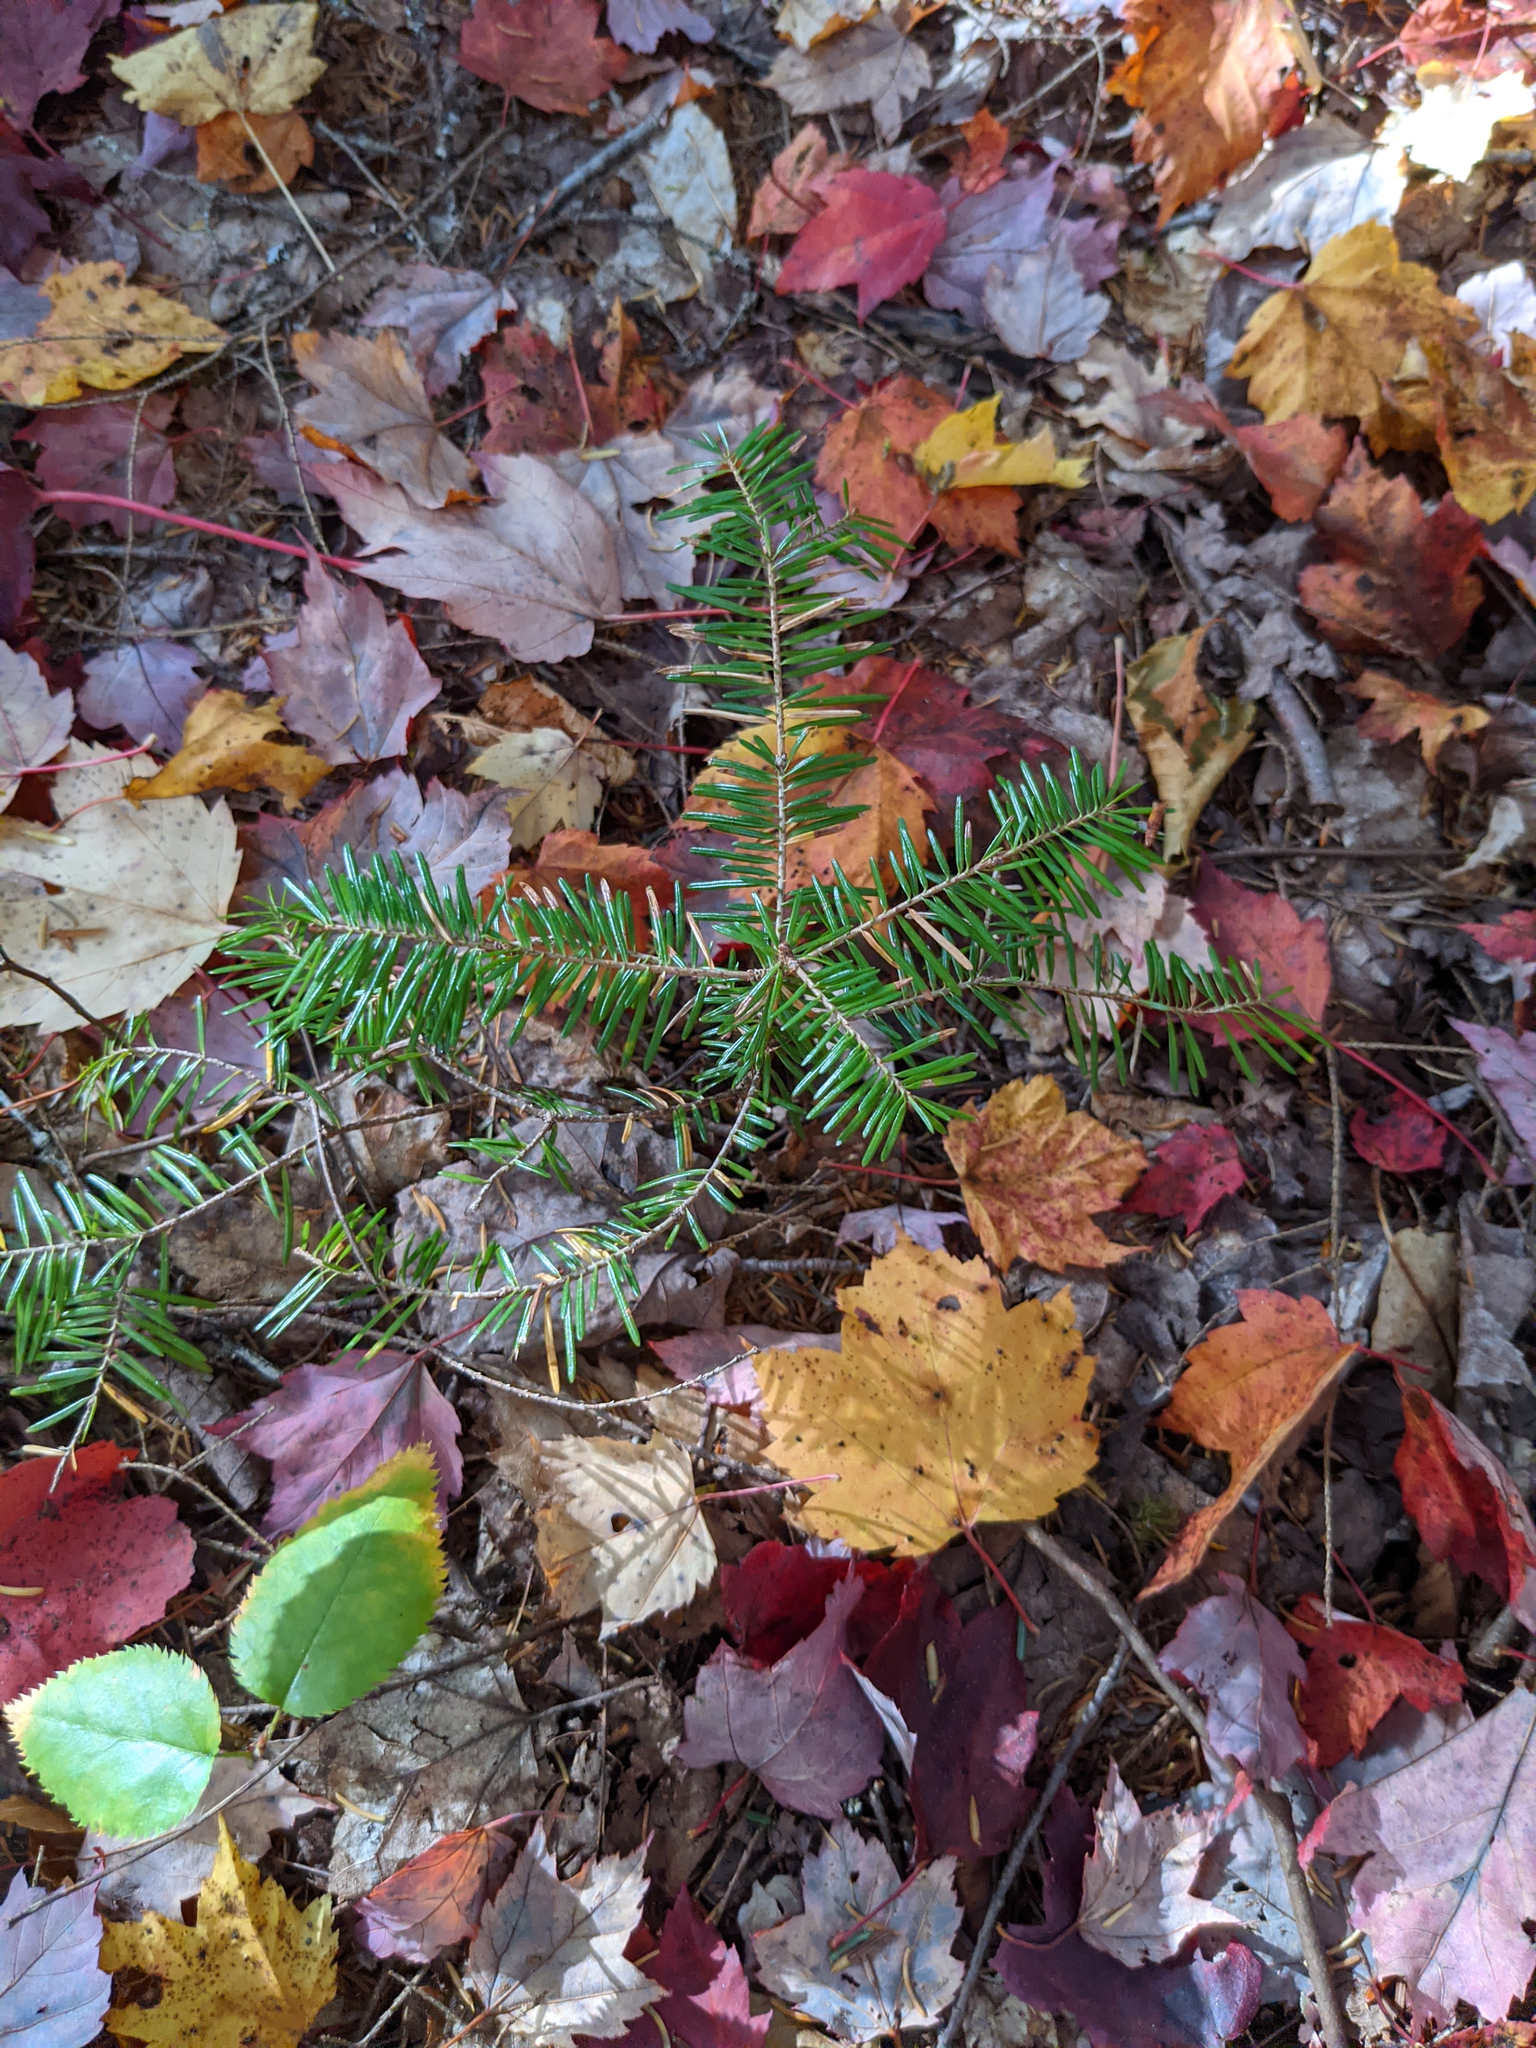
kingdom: Plantae
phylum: Tracheophyta
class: Pinopsida
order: Pinales
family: Pinaceae
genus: Abies
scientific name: Abies balsamea
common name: Balsam fir
